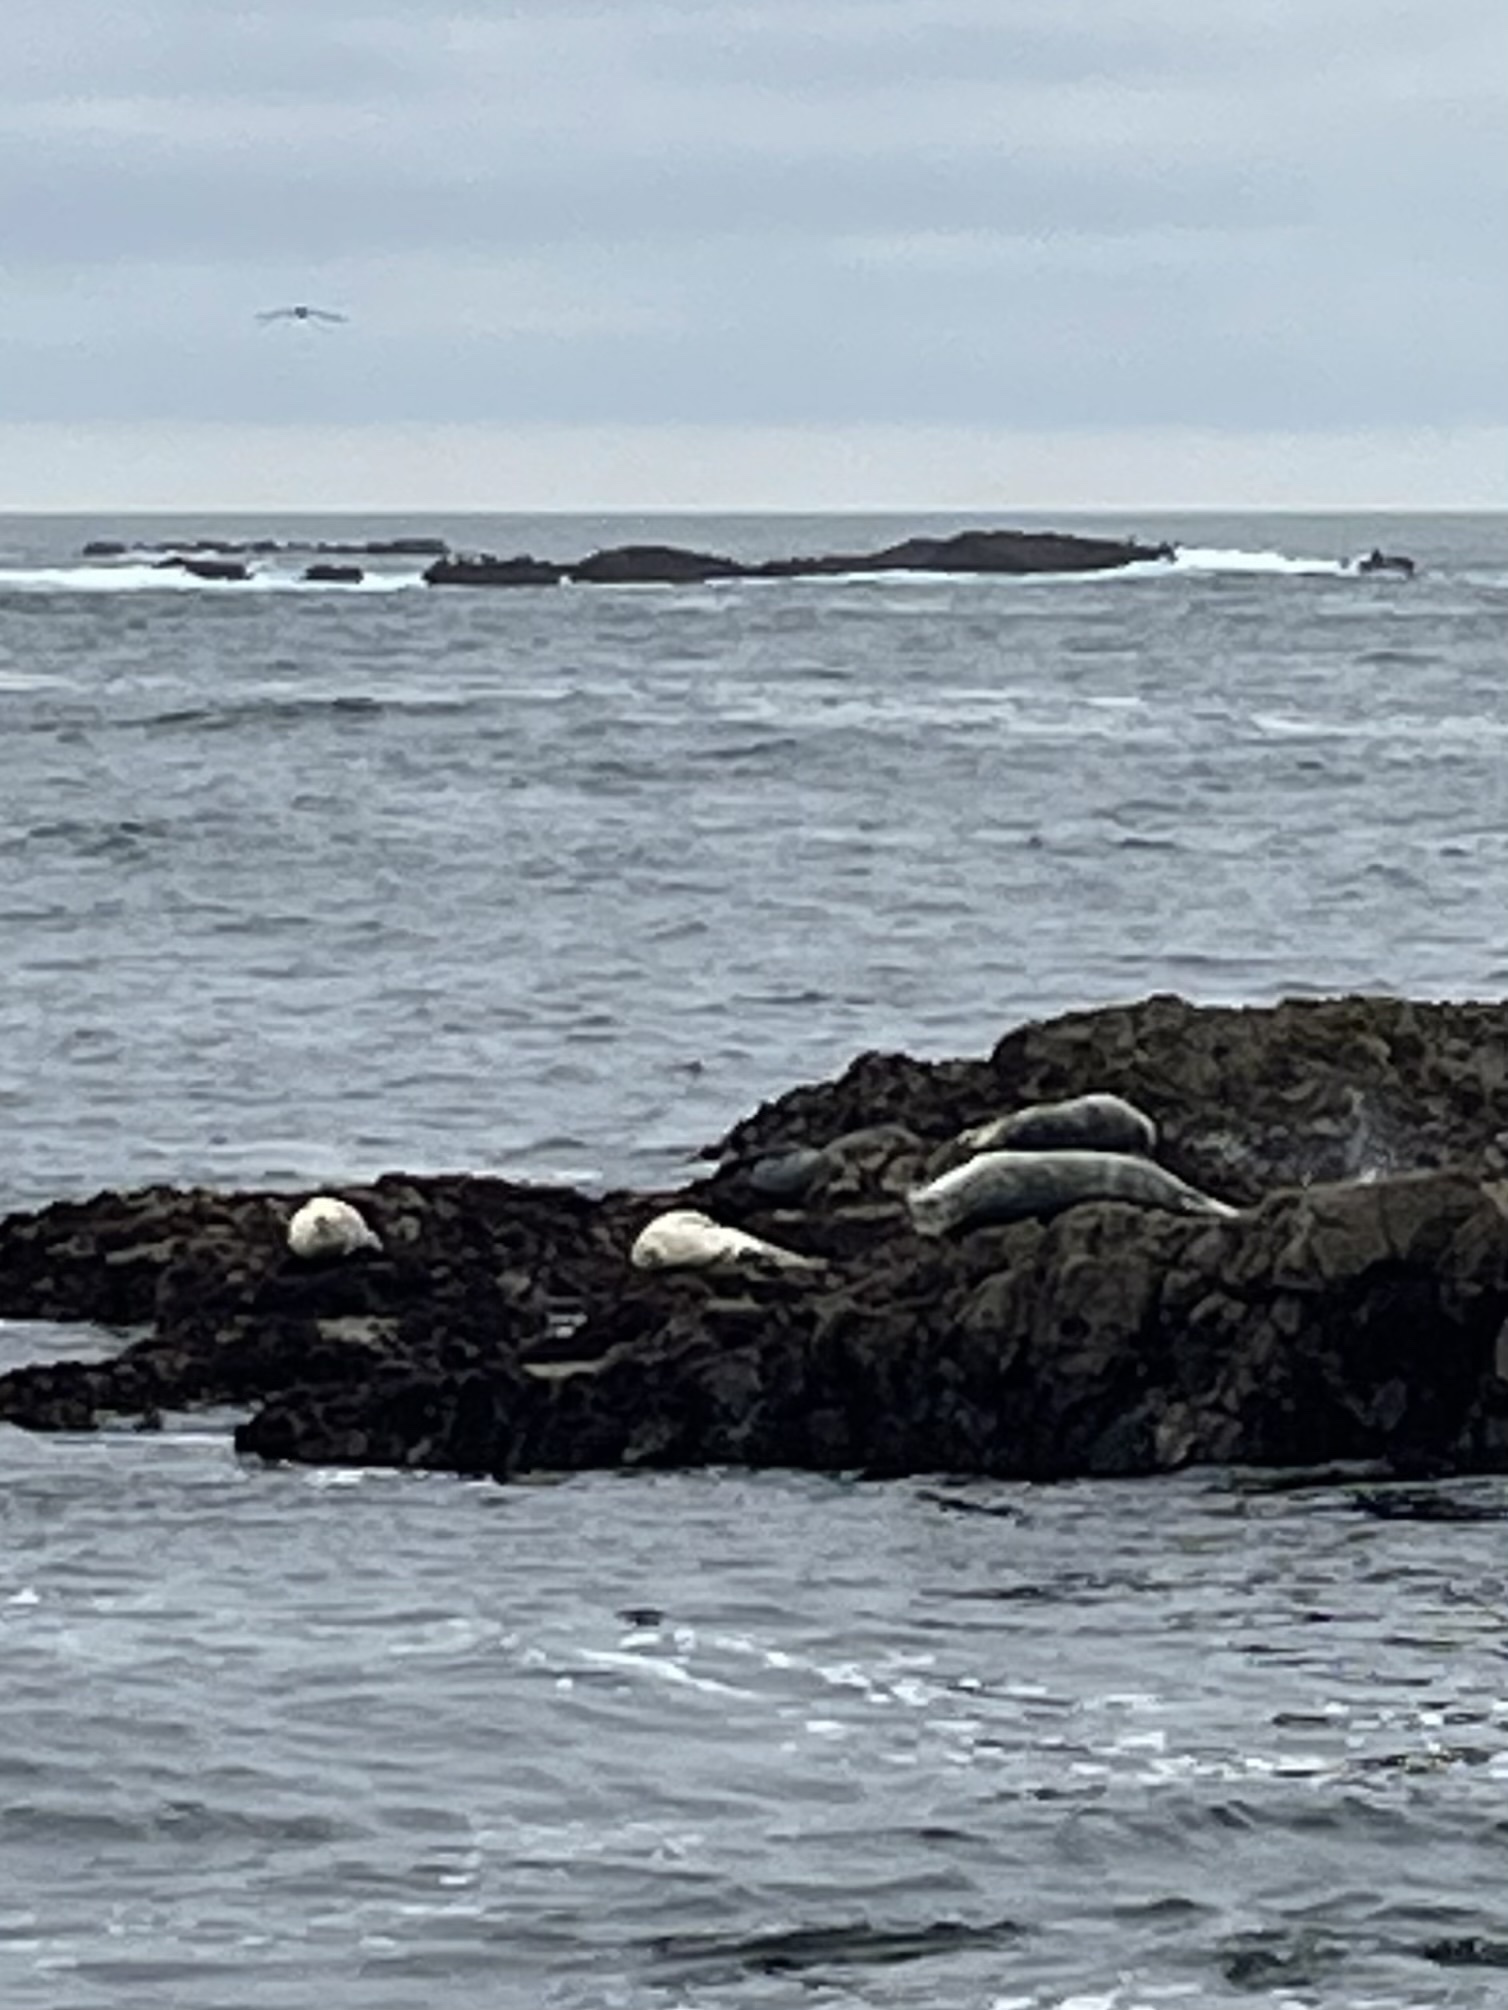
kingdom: Animalia
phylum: Chordata
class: Mammalia
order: Carnivora
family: Phocidae
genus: Phoca
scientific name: Phoca vitulina
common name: Harbor seal
